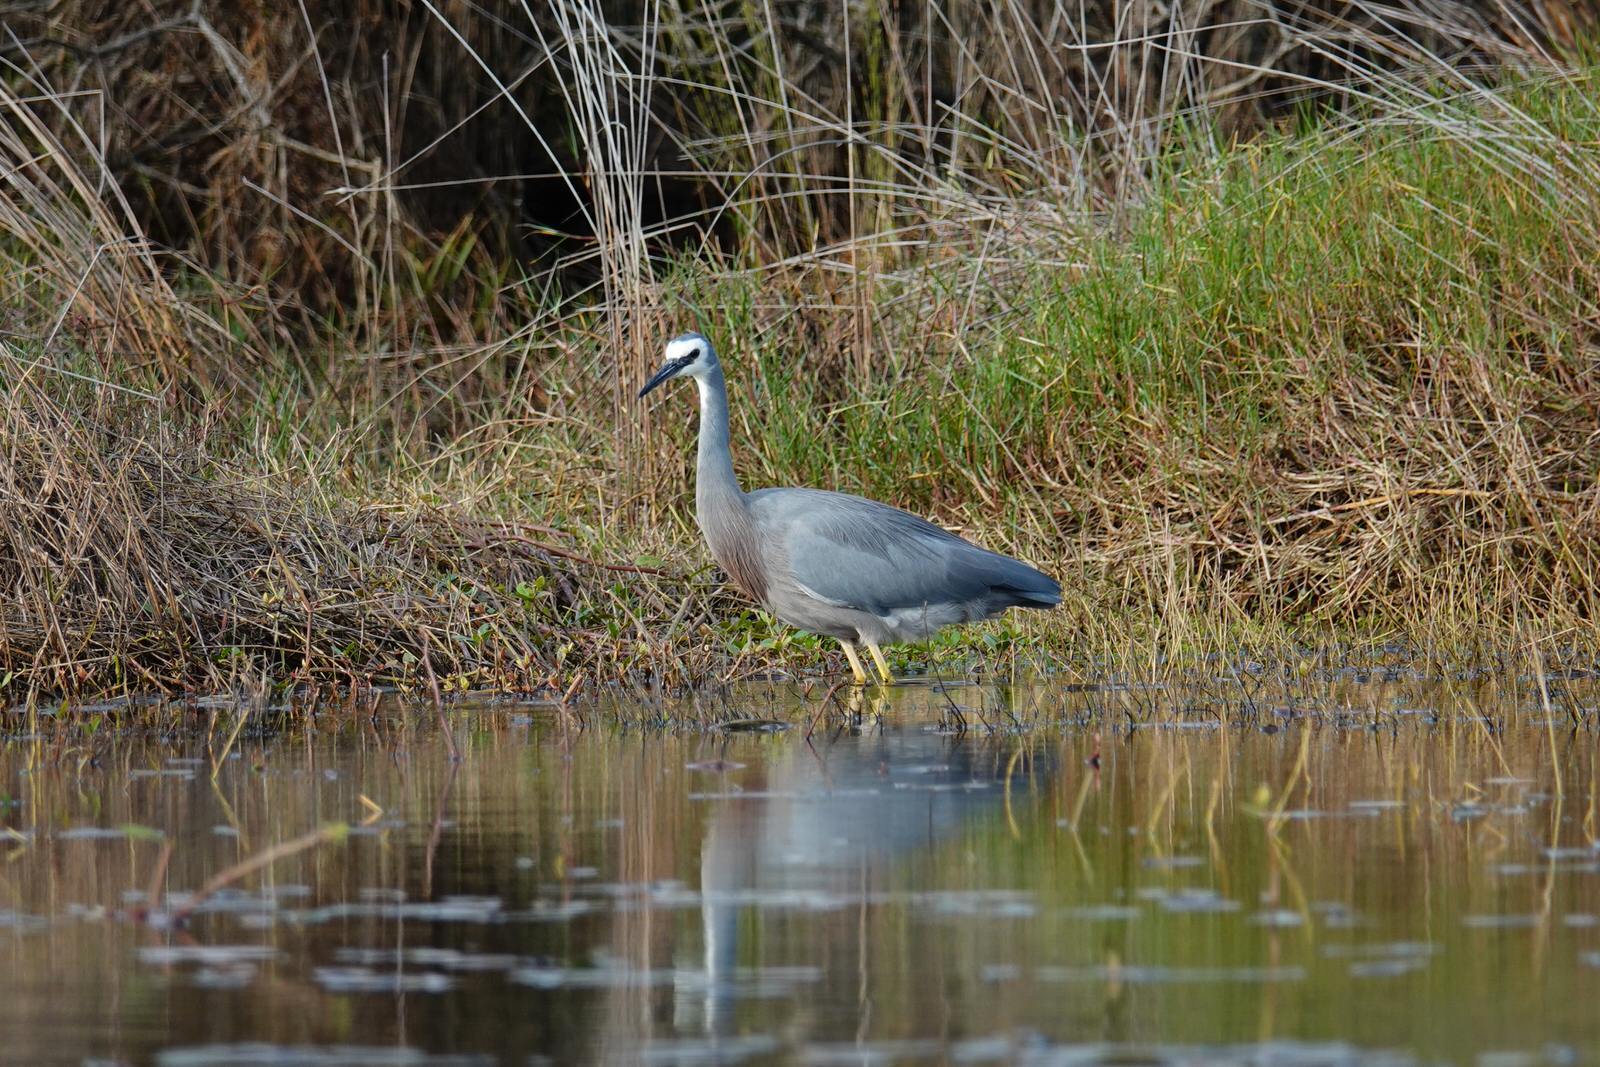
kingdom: Animalia
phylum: Chordata
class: Aves
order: Pelecaniformes
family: Ardeidae
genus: Egretta
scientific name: Egretta novaehollandiae
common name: White-faced heron
